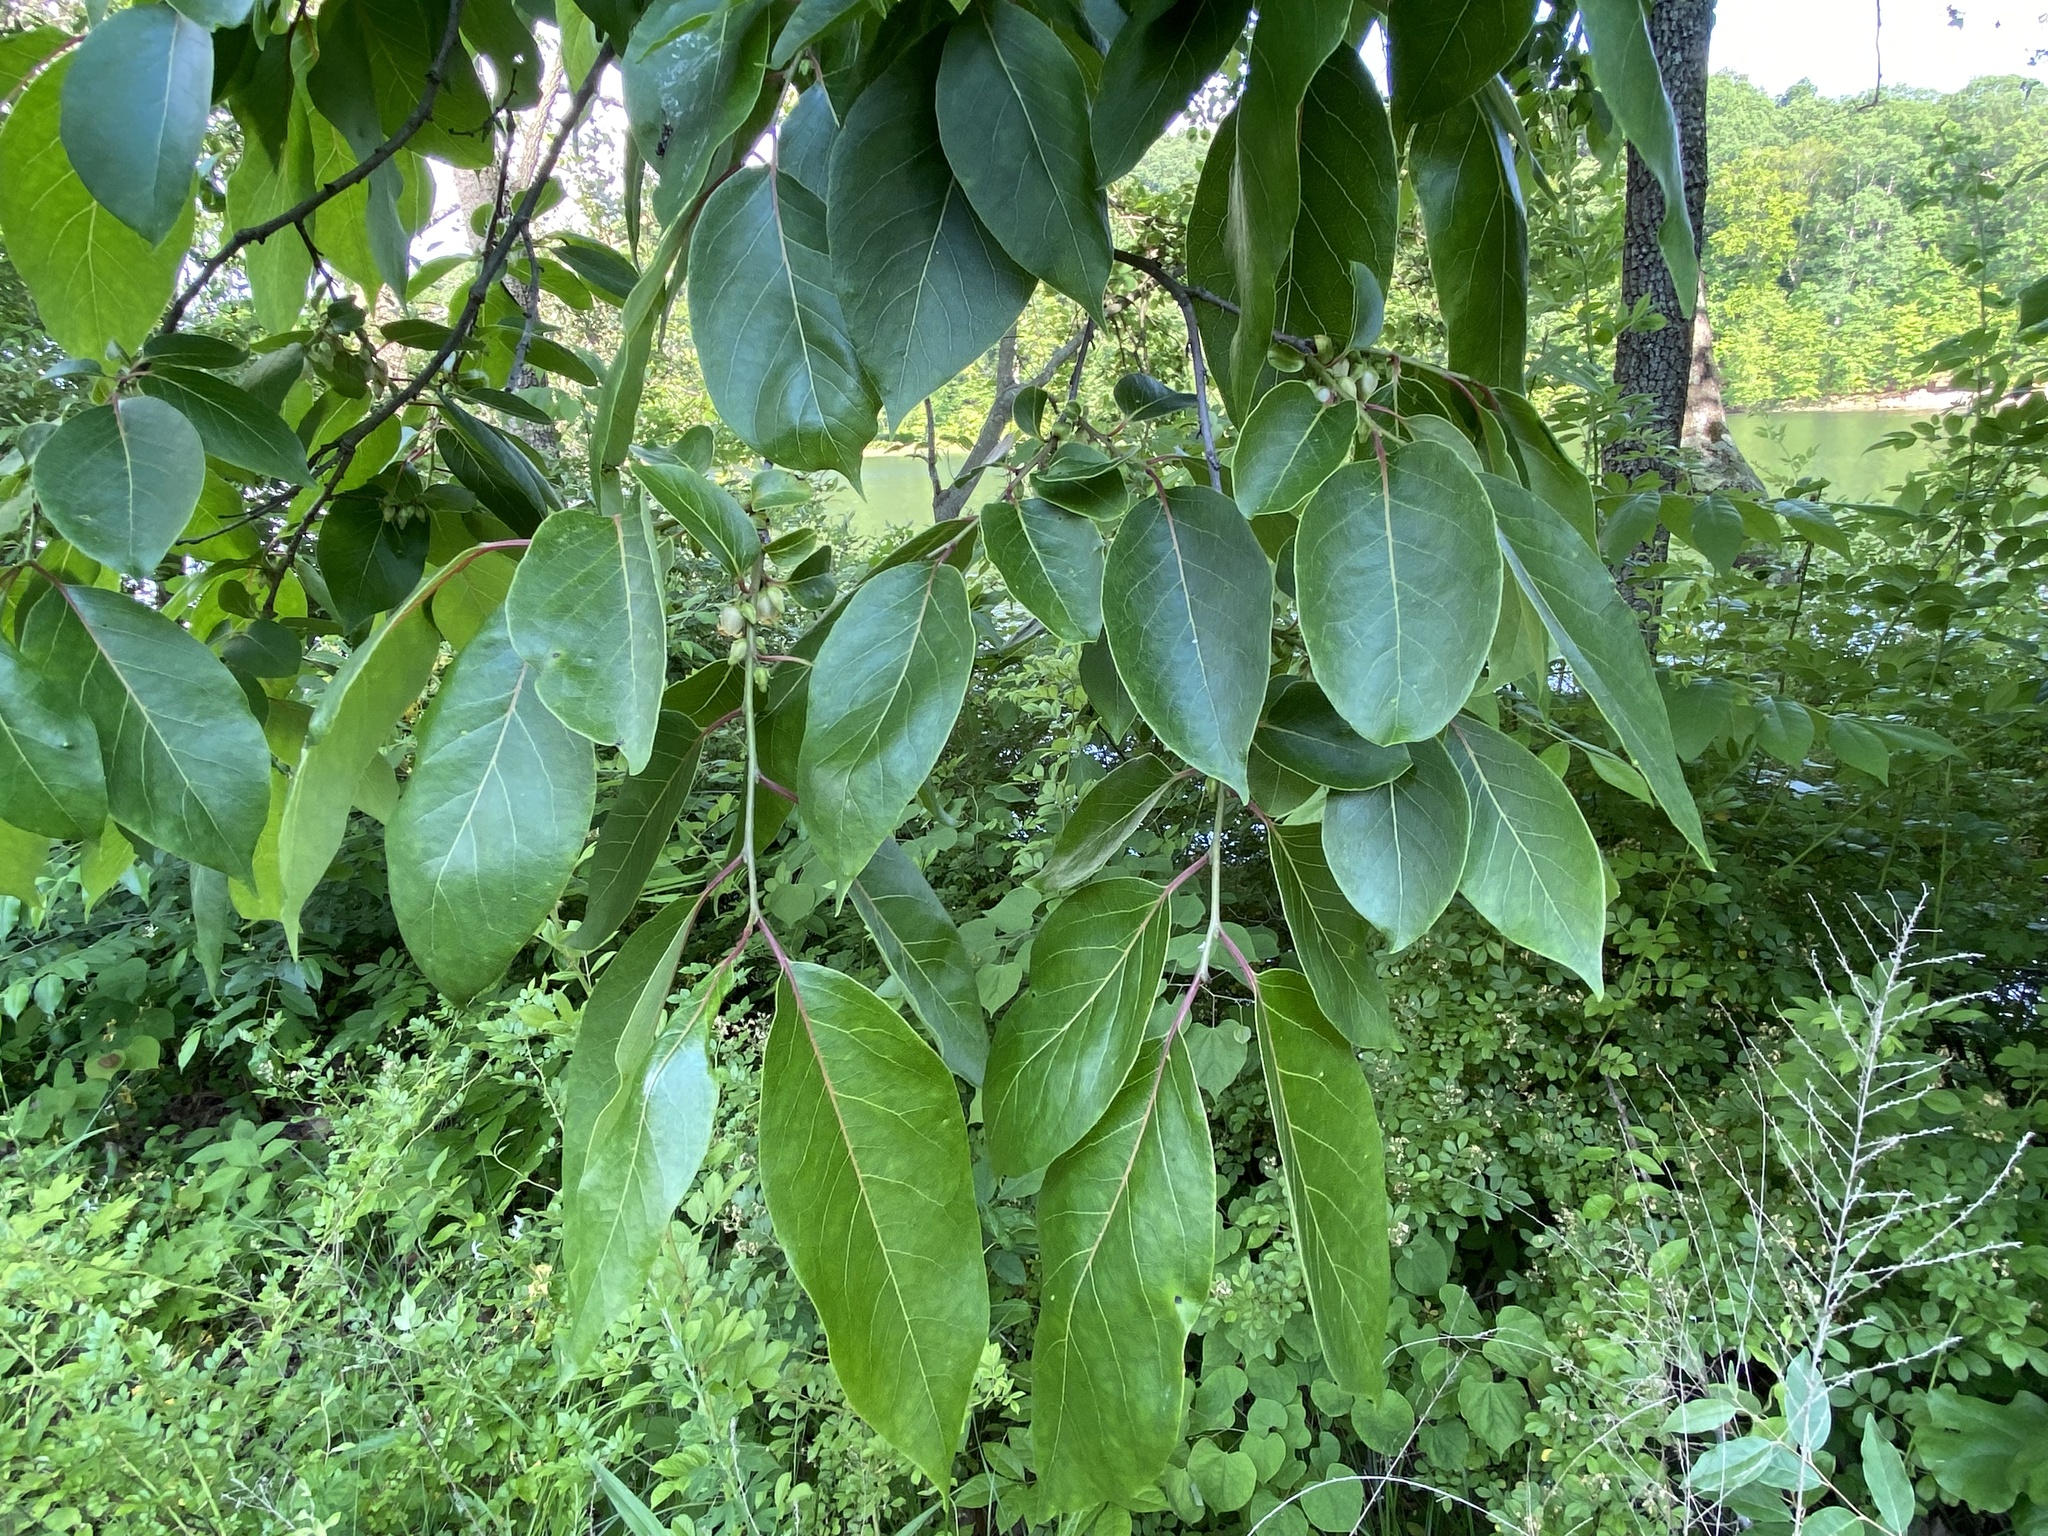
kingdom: Plantae
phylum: Tracheophyta
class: Magnoliopsida
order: Ericales
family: Ebenaceae
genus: Diospyros
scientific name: Diospyros virginiana
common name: Persimmon
